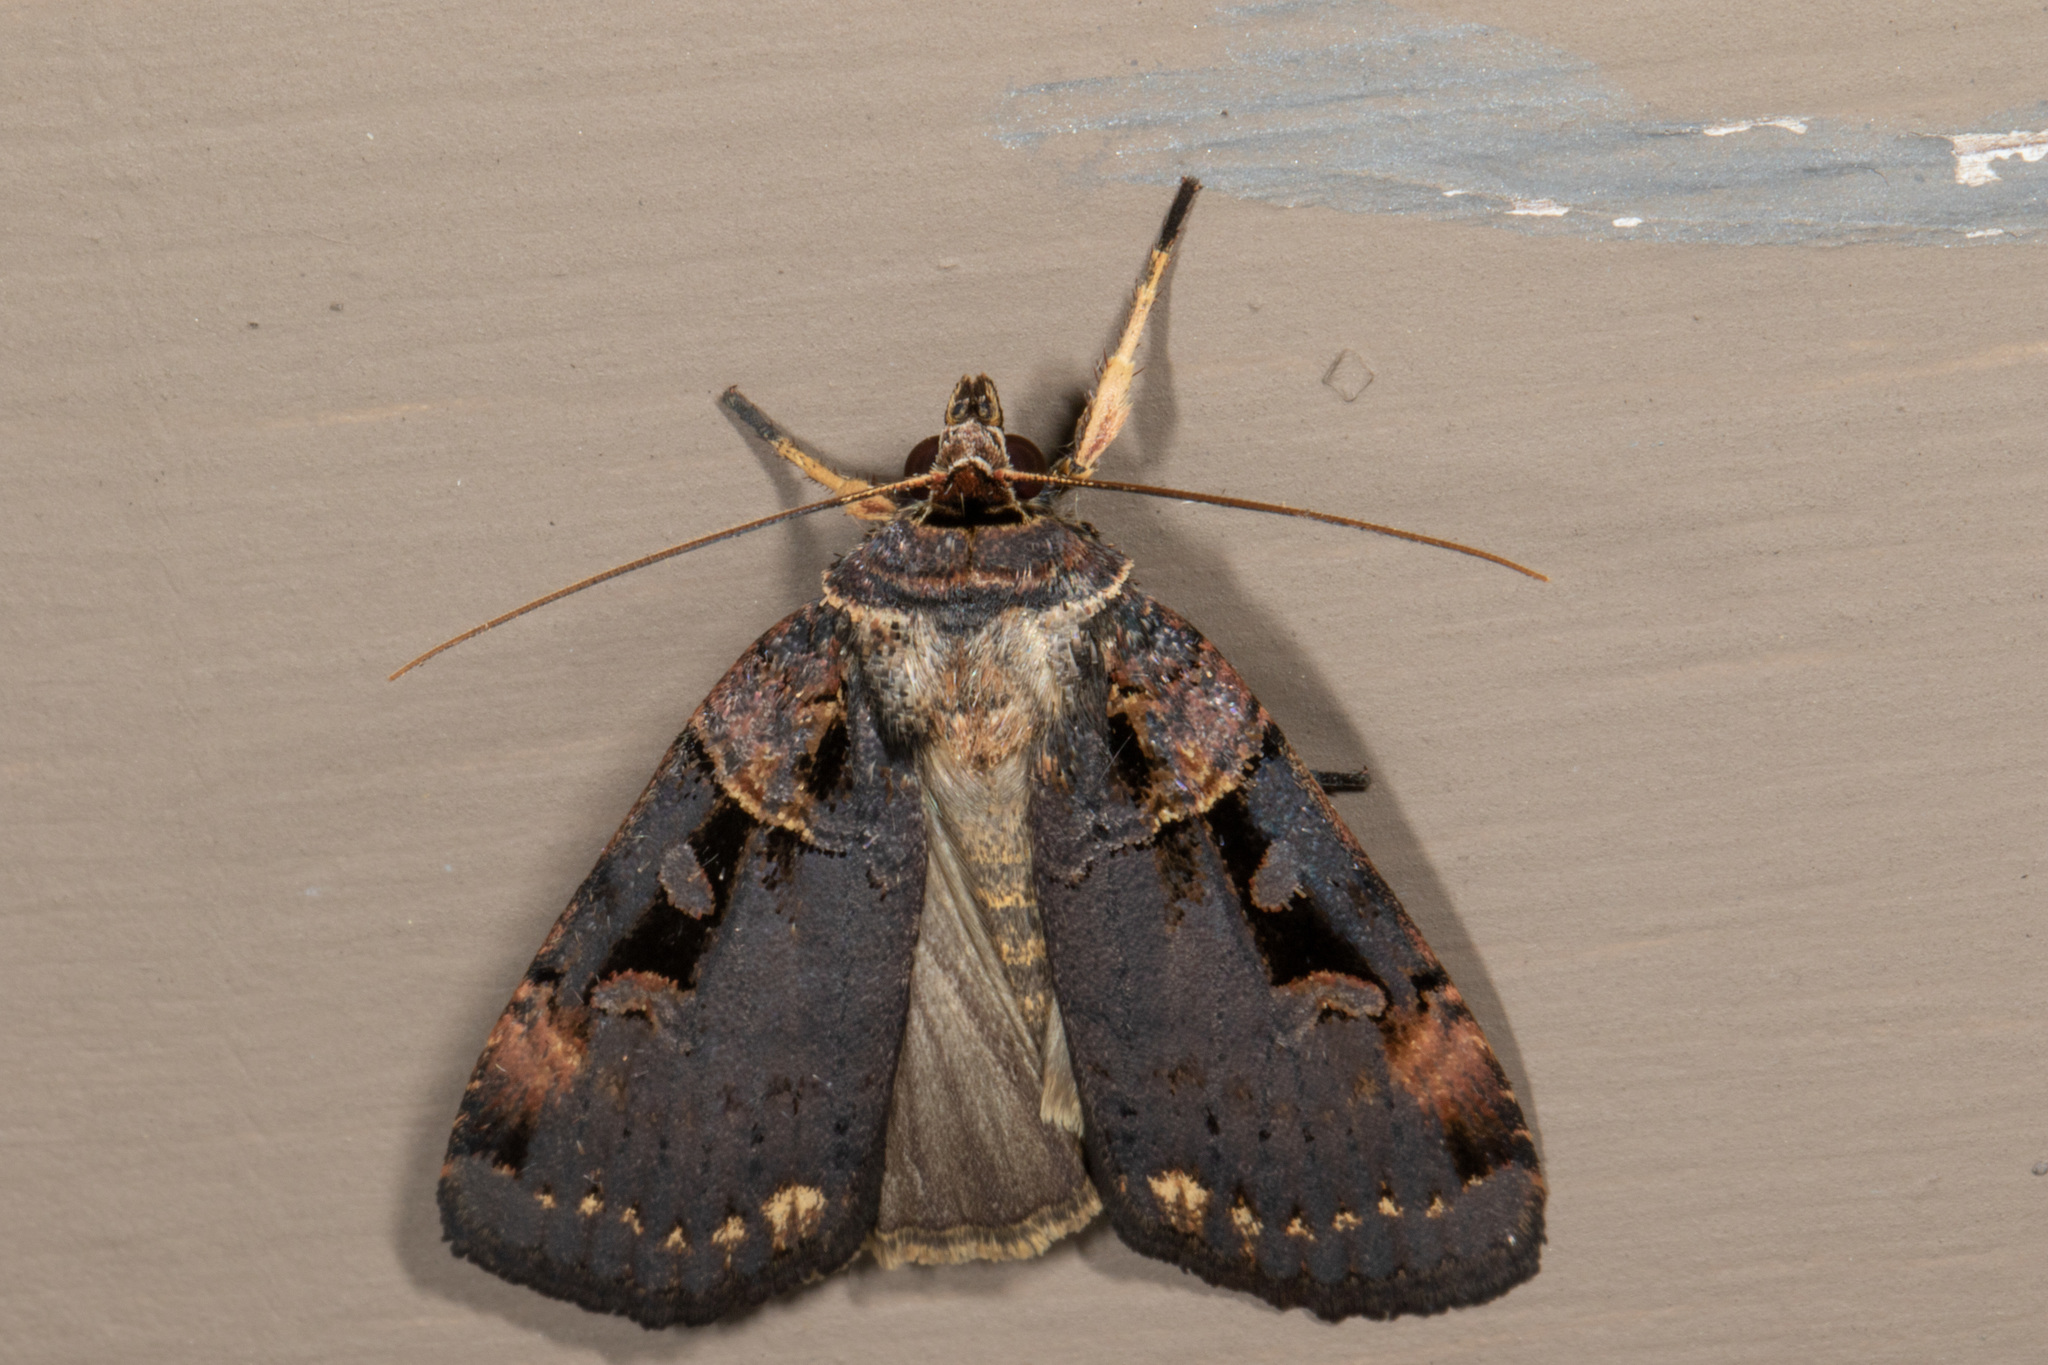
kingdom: Animalia
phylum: Arthropoda
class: Insecta
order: Lepidoptera
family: Noctuidae
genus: Pseudohermonassa
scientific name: Pseudohermonassa bicarnea
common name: Pink spotted dart
